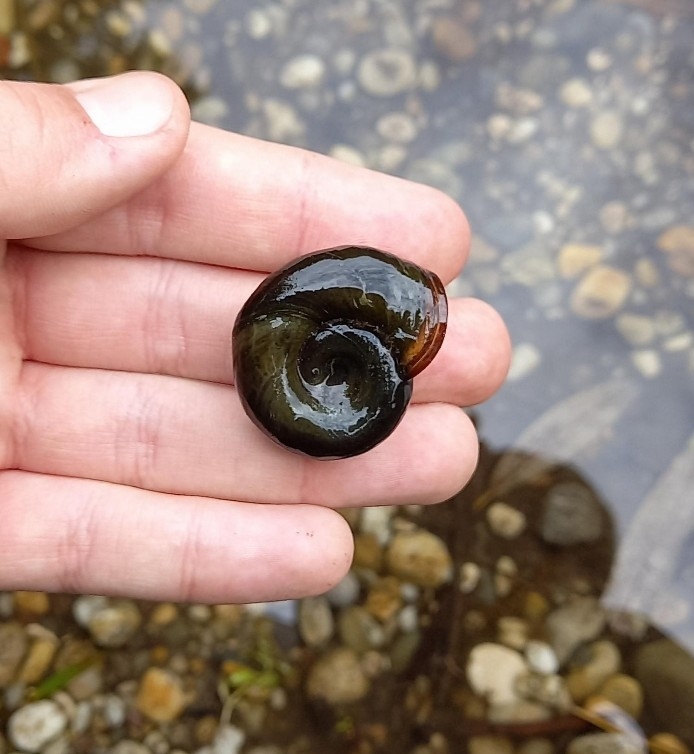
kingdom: Animalia
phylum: Mollusca
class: Gastropoda
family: Planorbidae
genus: Planorbarius
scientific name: Planorbarius corneus
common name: Great ramshorn
